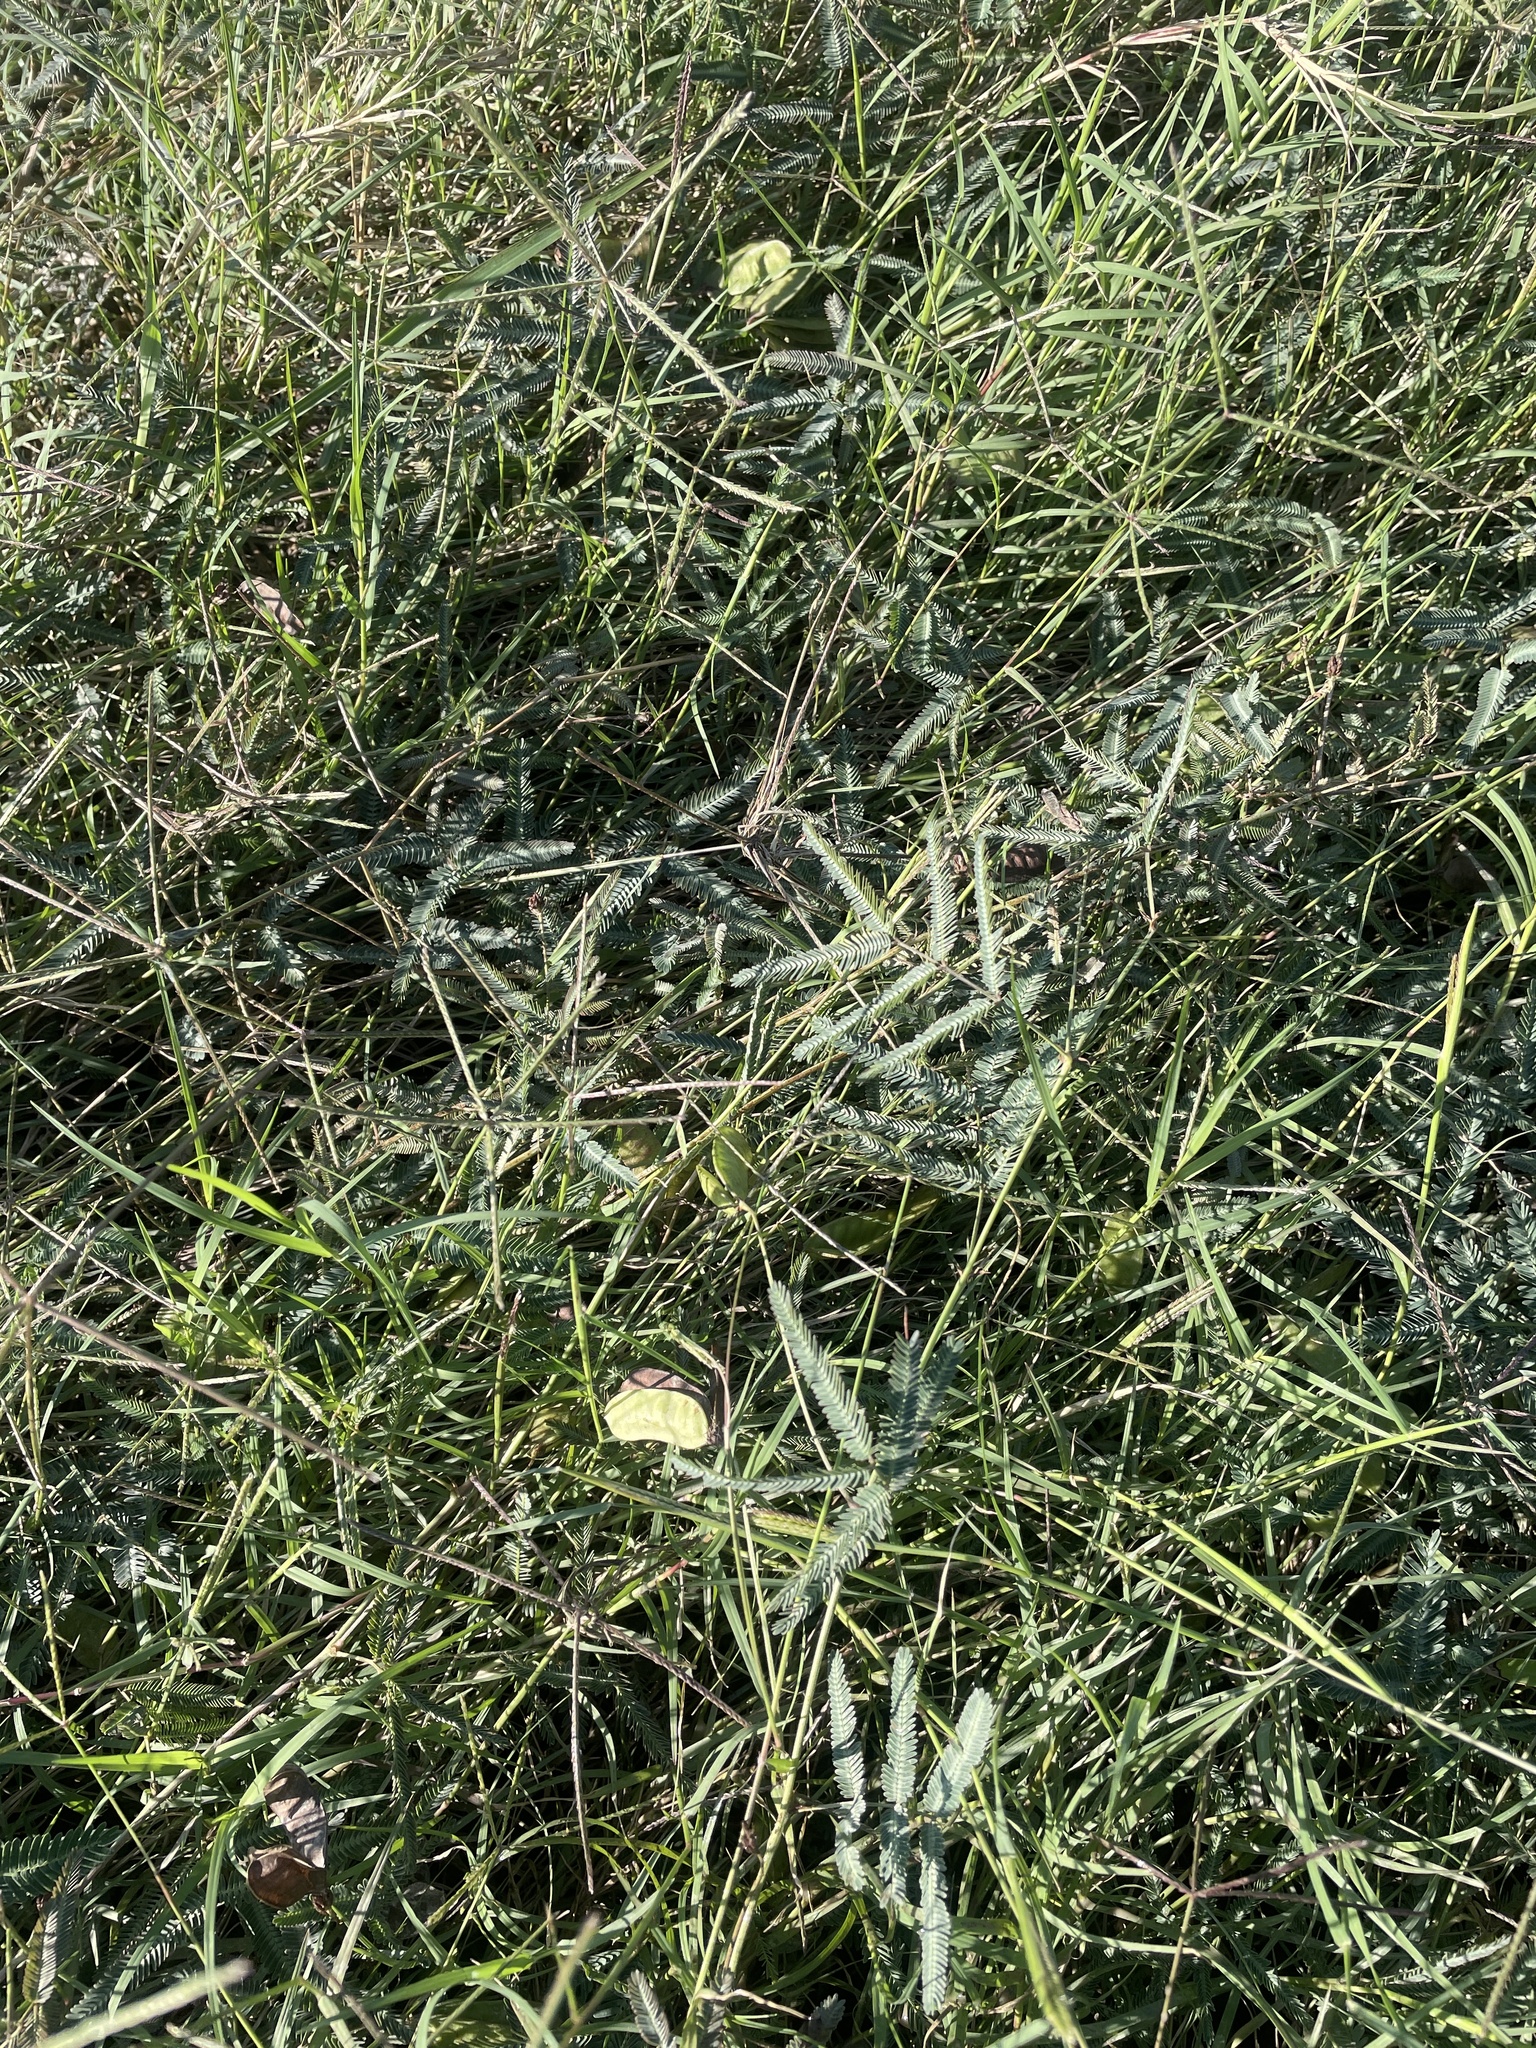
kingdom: Plantae
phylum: Tracheophyta
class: Magnoliopsida
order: Fabales
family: Fabaceae
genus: Neptunia
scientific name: Neptunia pubescens
